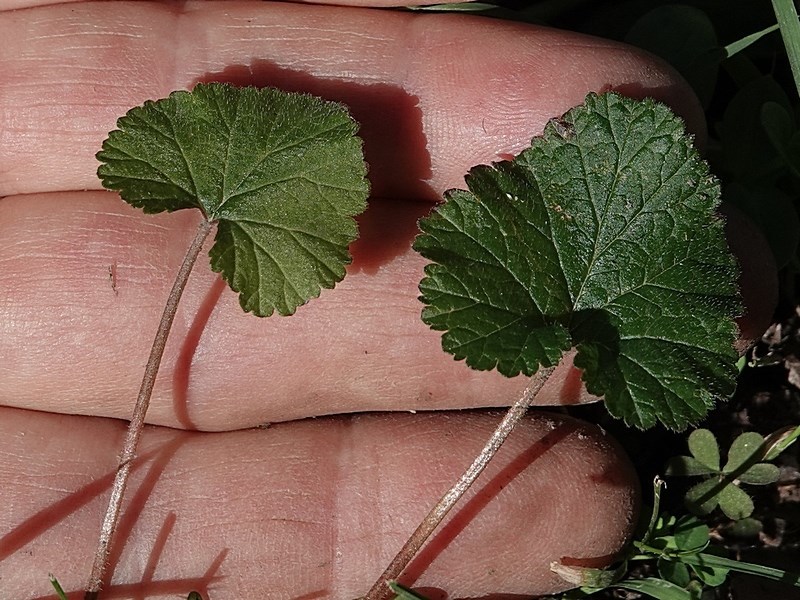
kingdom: Plantae
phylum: Tracheophyta
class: Magnoliopsida
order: Geraniales
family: Geraniaceae
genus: Pelargonium
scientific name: Pelargonium inodorum
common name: Kopata geranium
